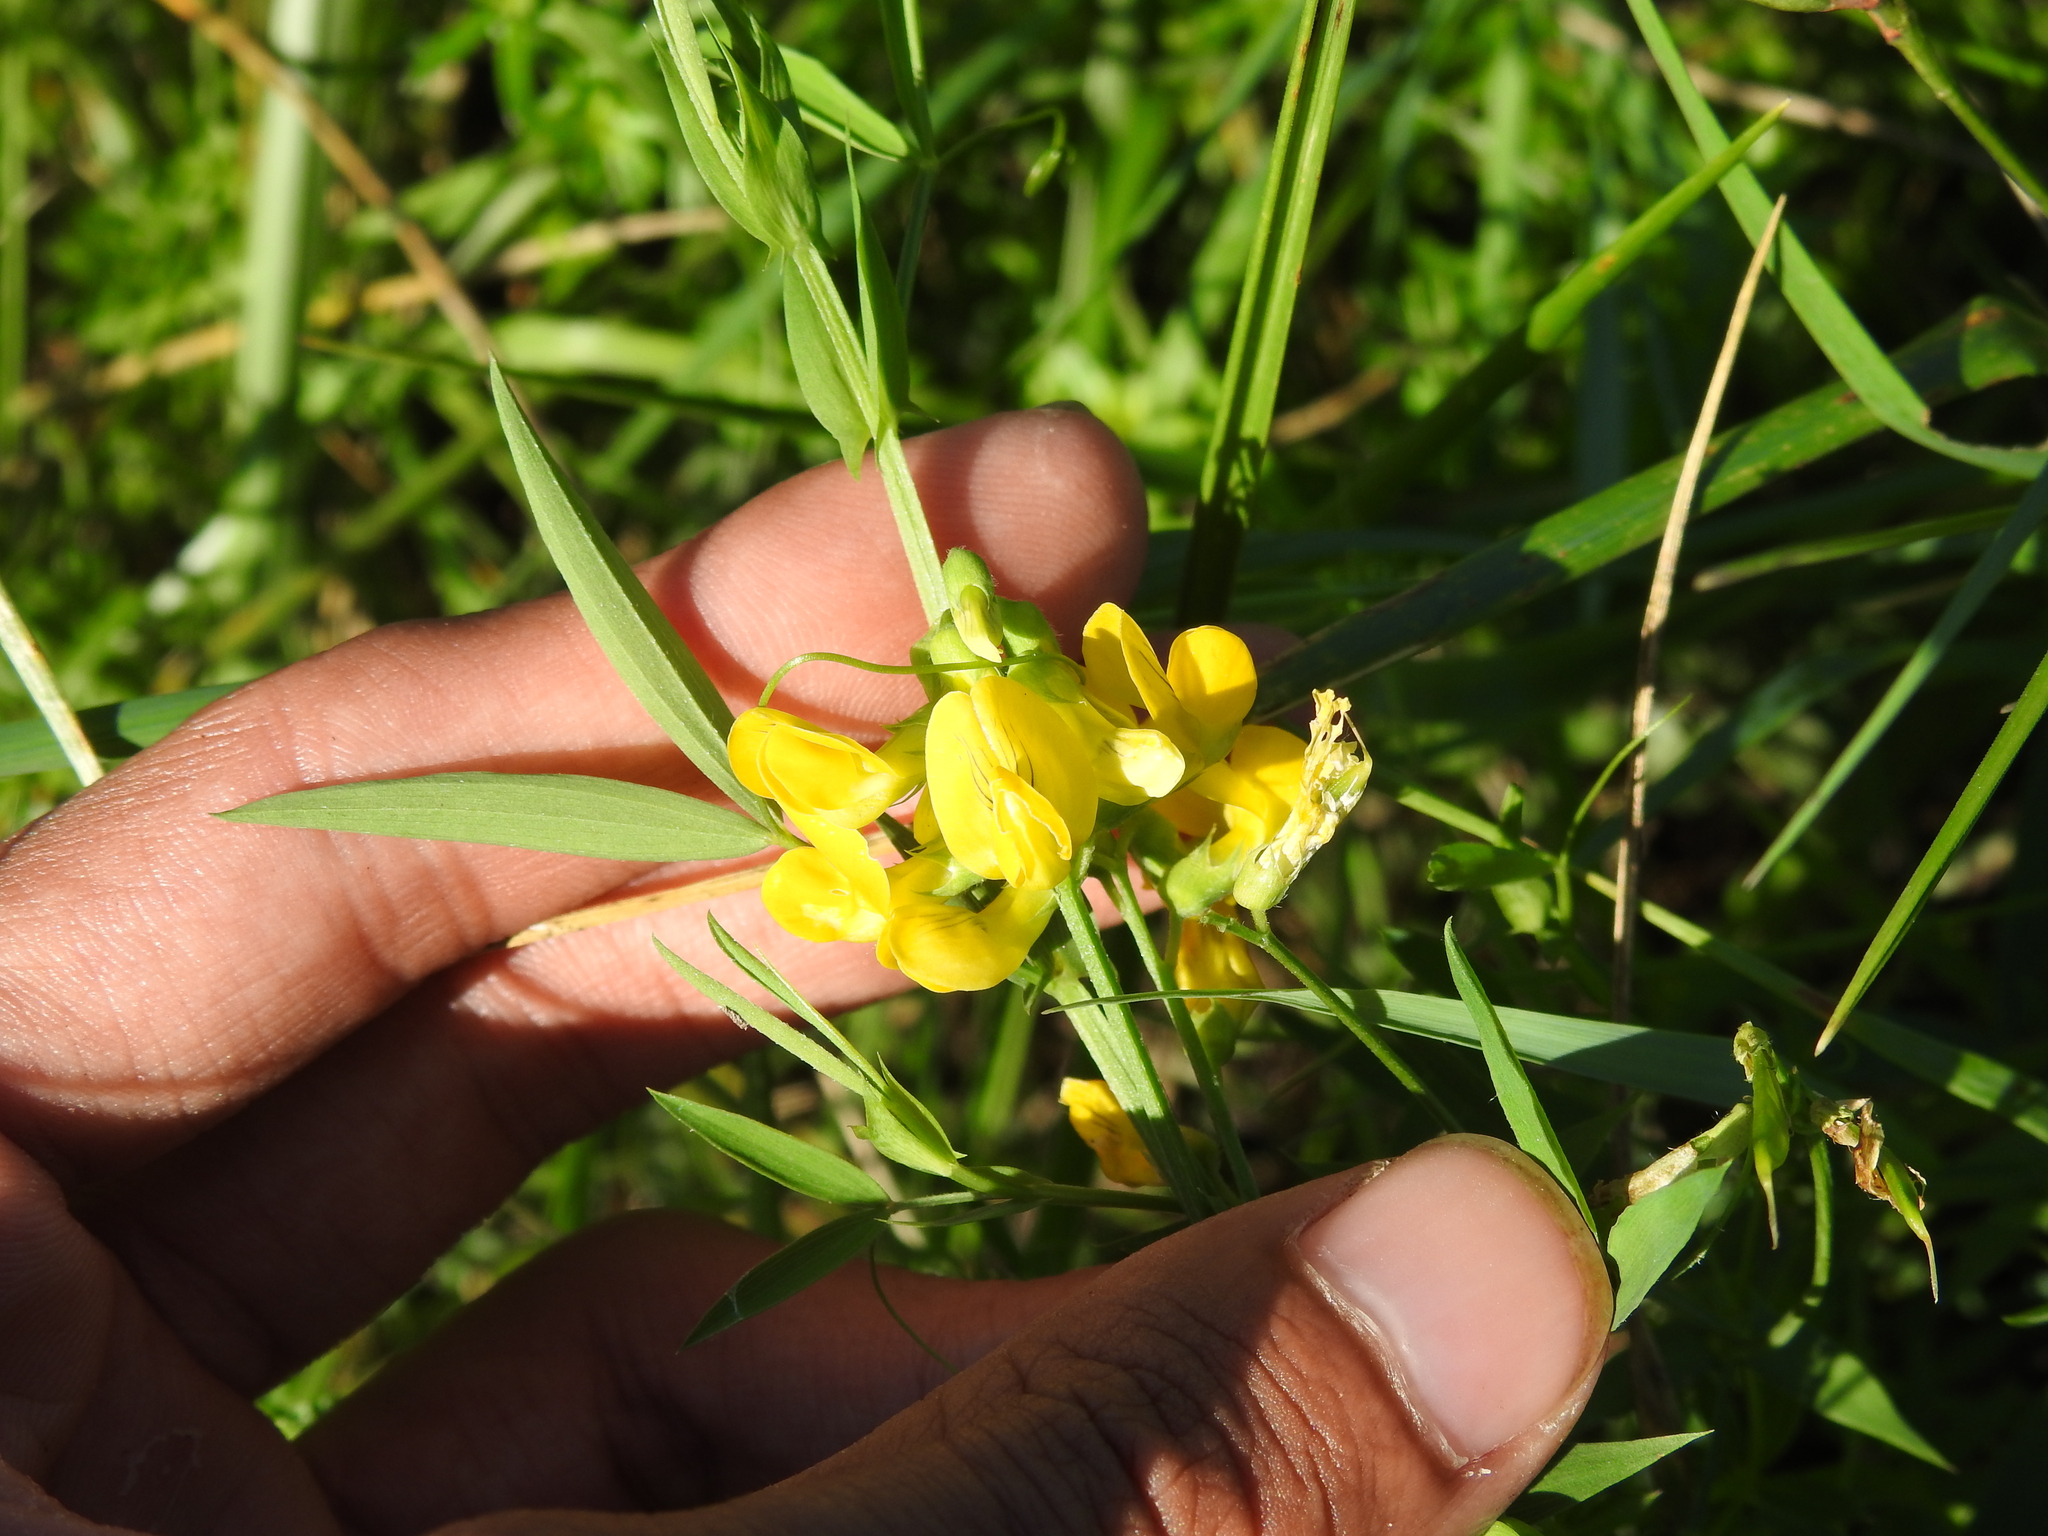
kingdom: Plantae
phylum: Tracheophyta
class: Magnoliopsida
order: Fabales
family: Fabaceae
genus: Lathyrus
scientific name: Lathyrus pratensis
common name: Meadow vetchling
